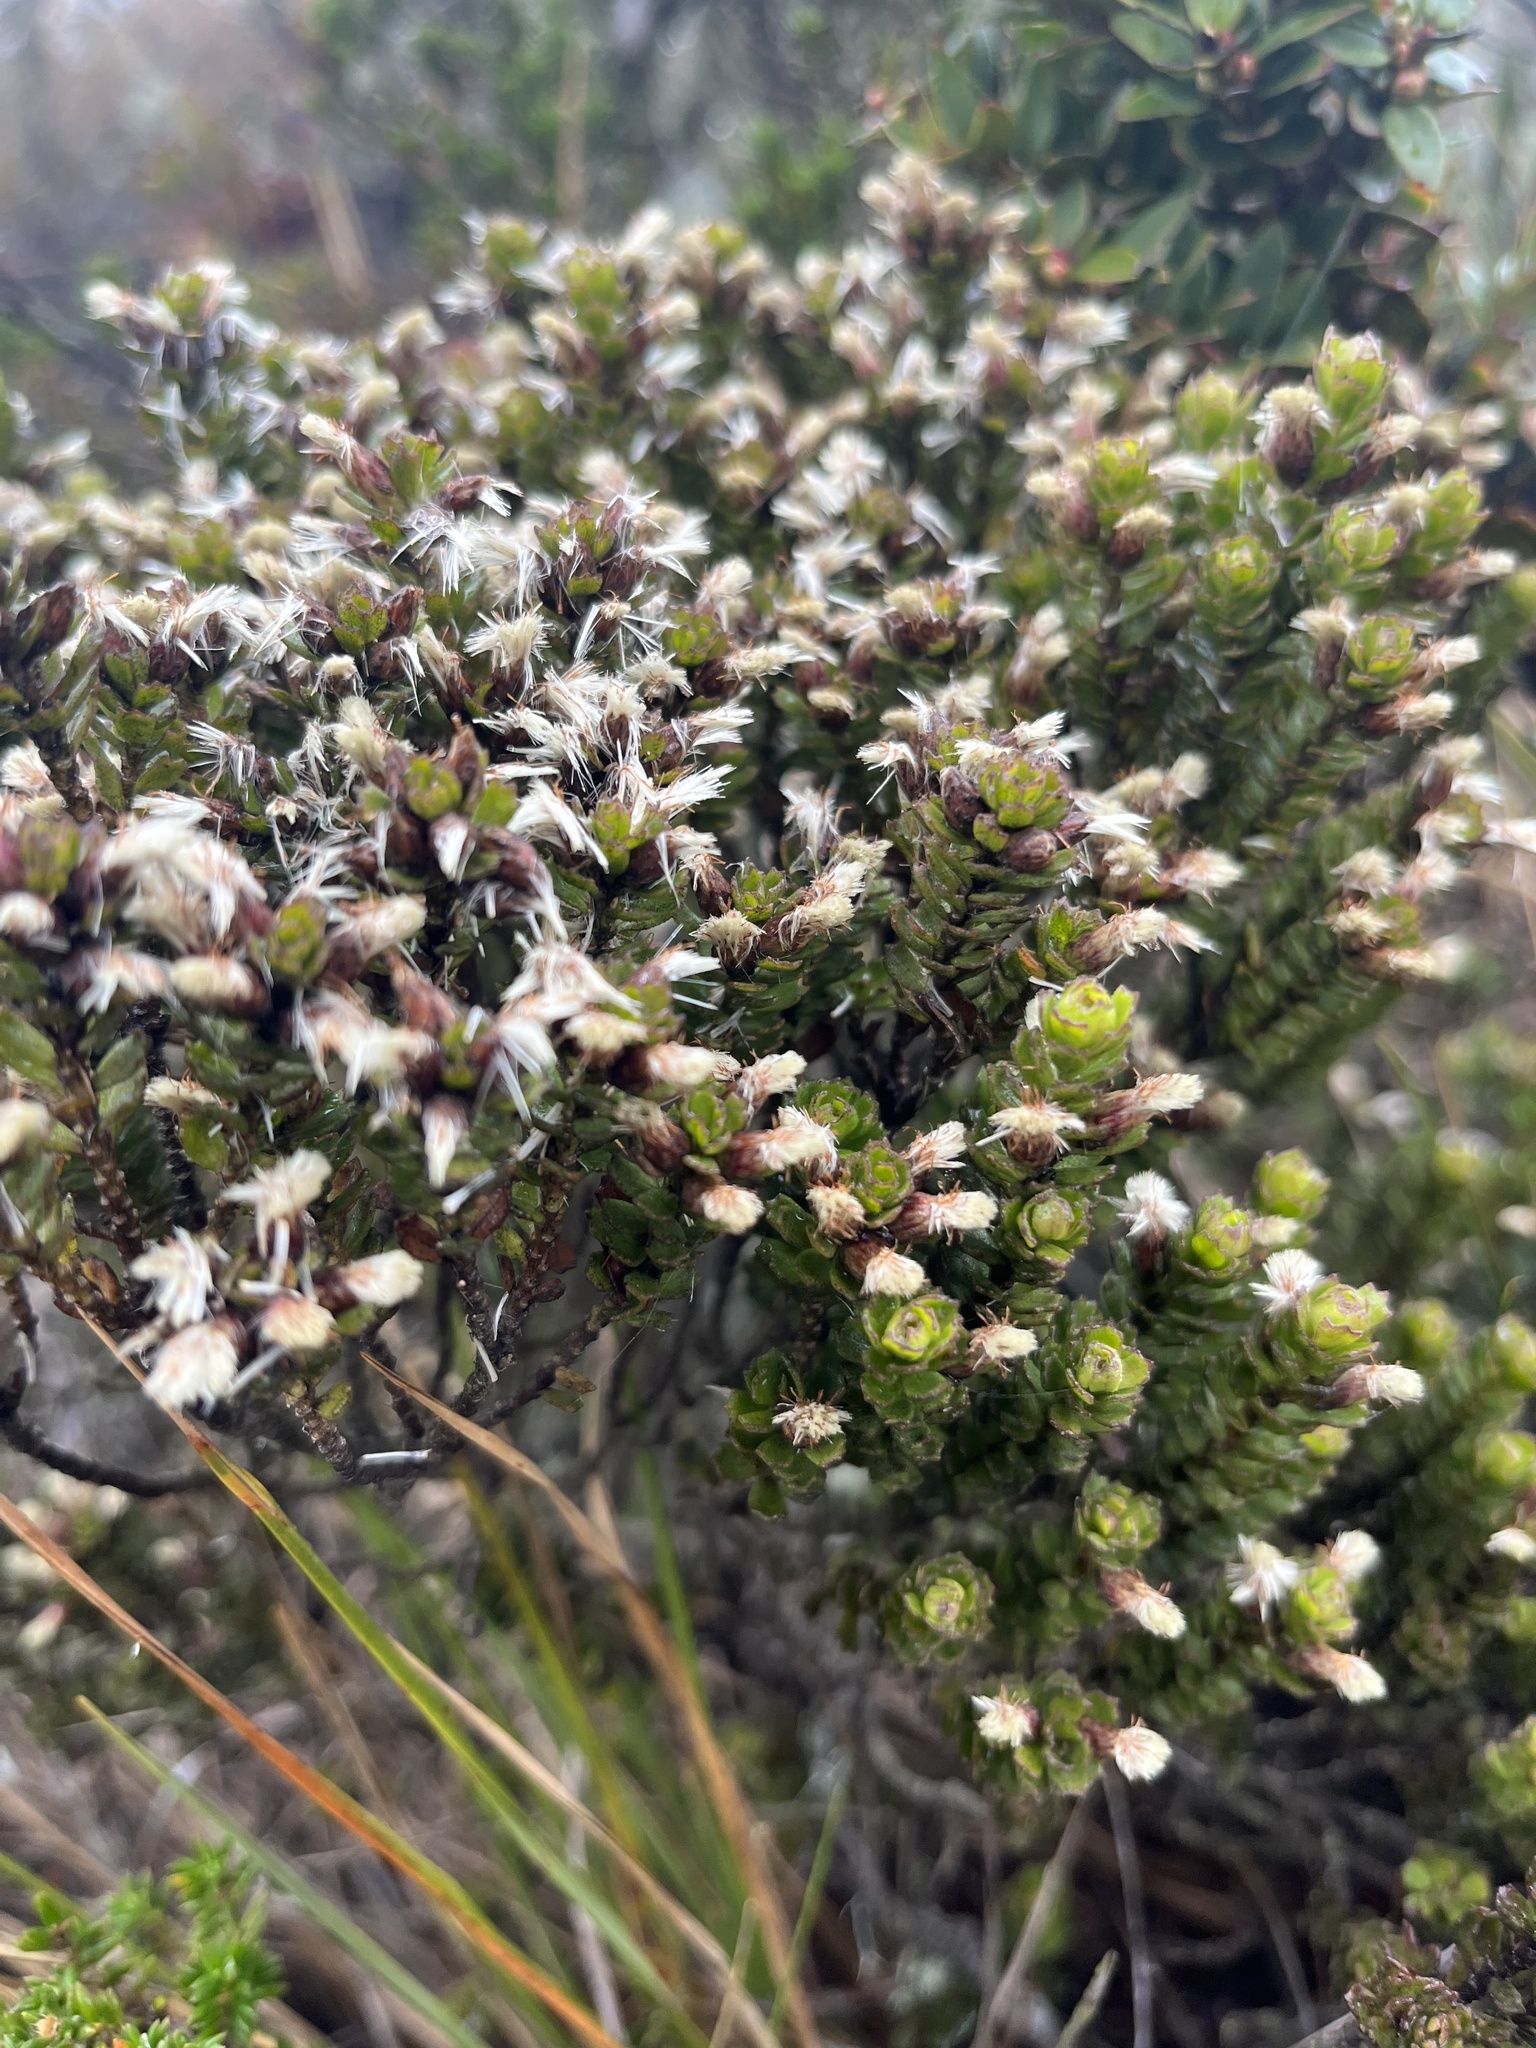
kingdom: Plantae
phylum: Tracheophyta
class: Magnoliopsida
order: Asterales
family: Asteraceae
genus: Baccharis
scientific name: Baccharis tricuneata
